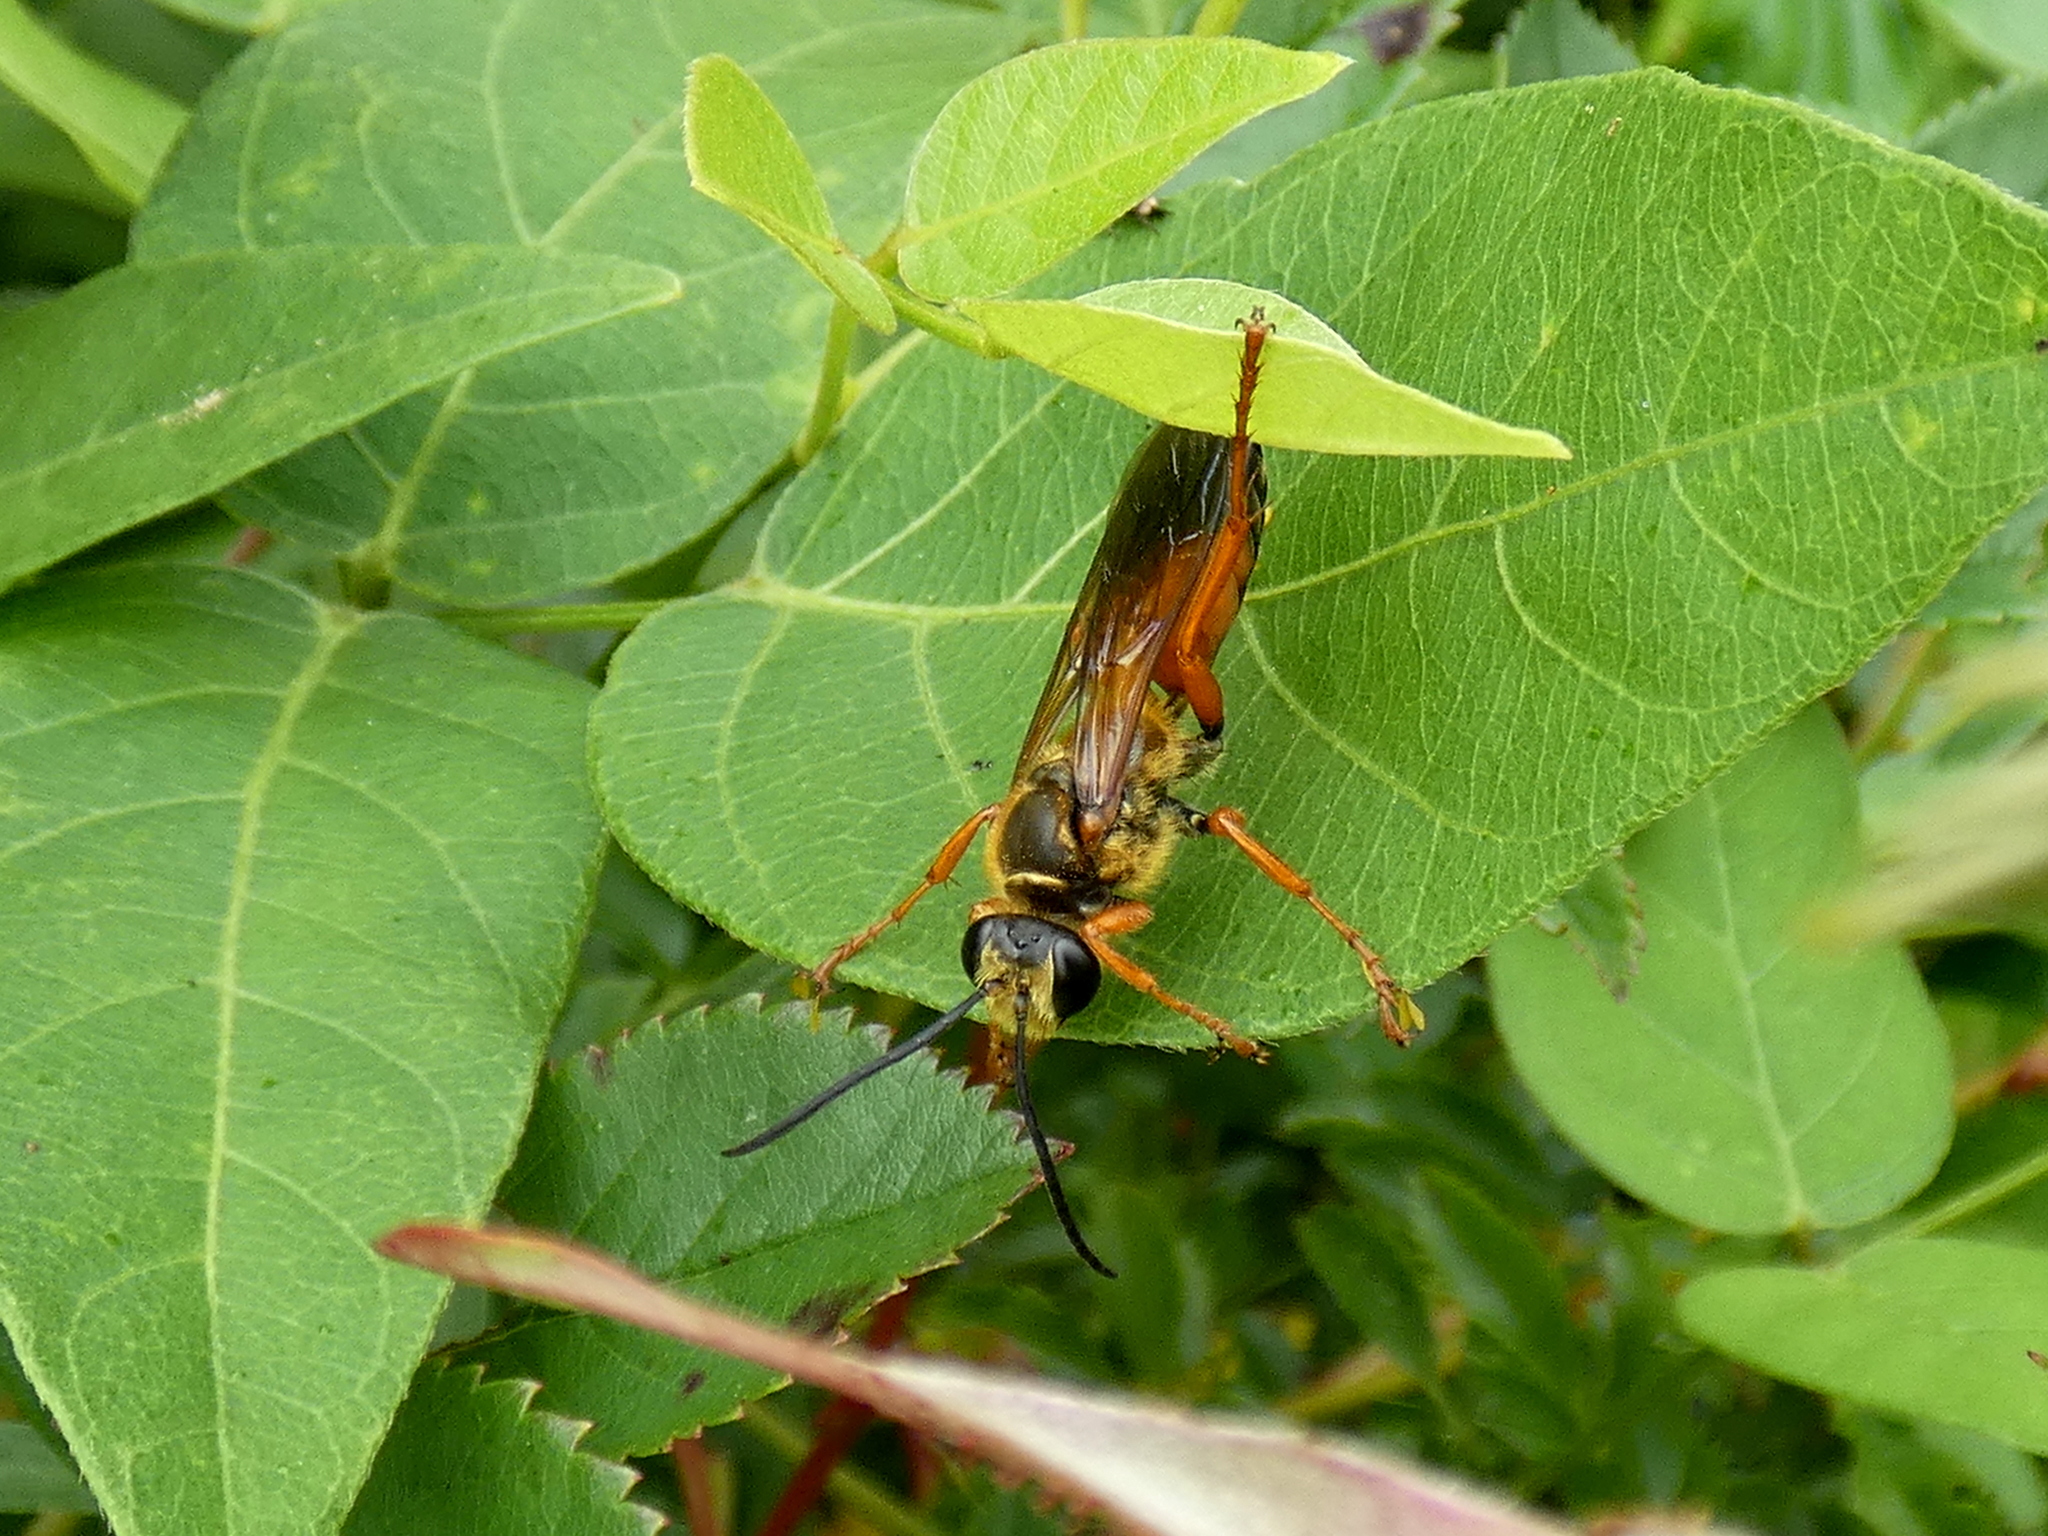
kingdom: Animalia
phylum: Arthropoda
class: Insecta
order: Hymenoptera
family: Sphecidae
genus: Sphex
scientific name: Sphex ichneumoneus
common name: Great golden digger wasp
